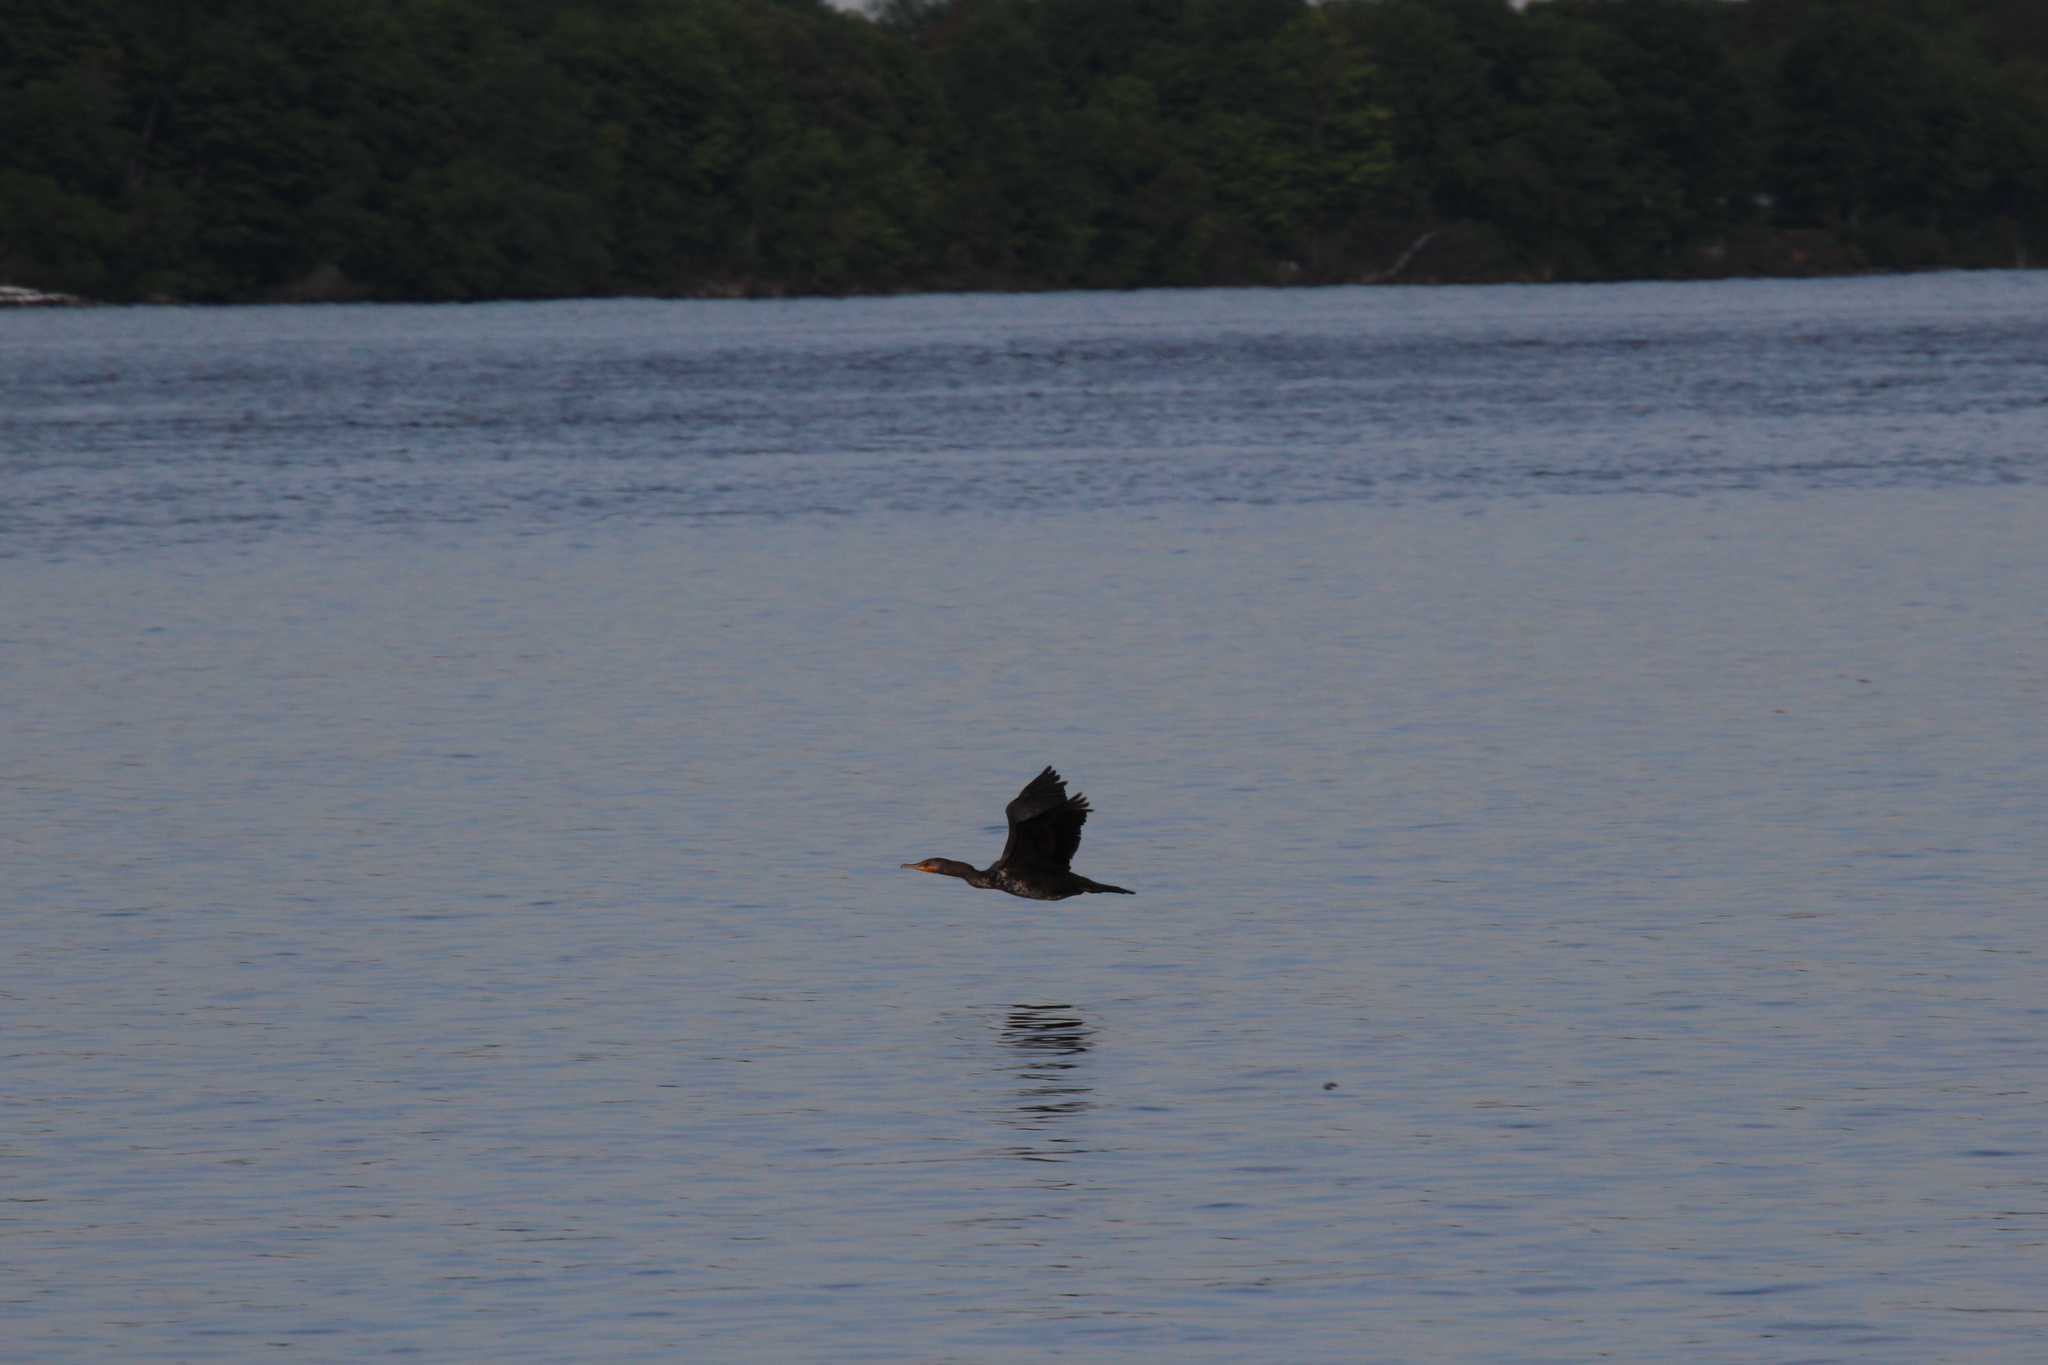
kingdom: Animalia
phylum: Chordata
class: Aves
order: Suliformes
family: Phalacrocoracidae
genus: Phalacrocorax
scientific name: Phalacrocorax auritus
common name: Double-crested cormorant
